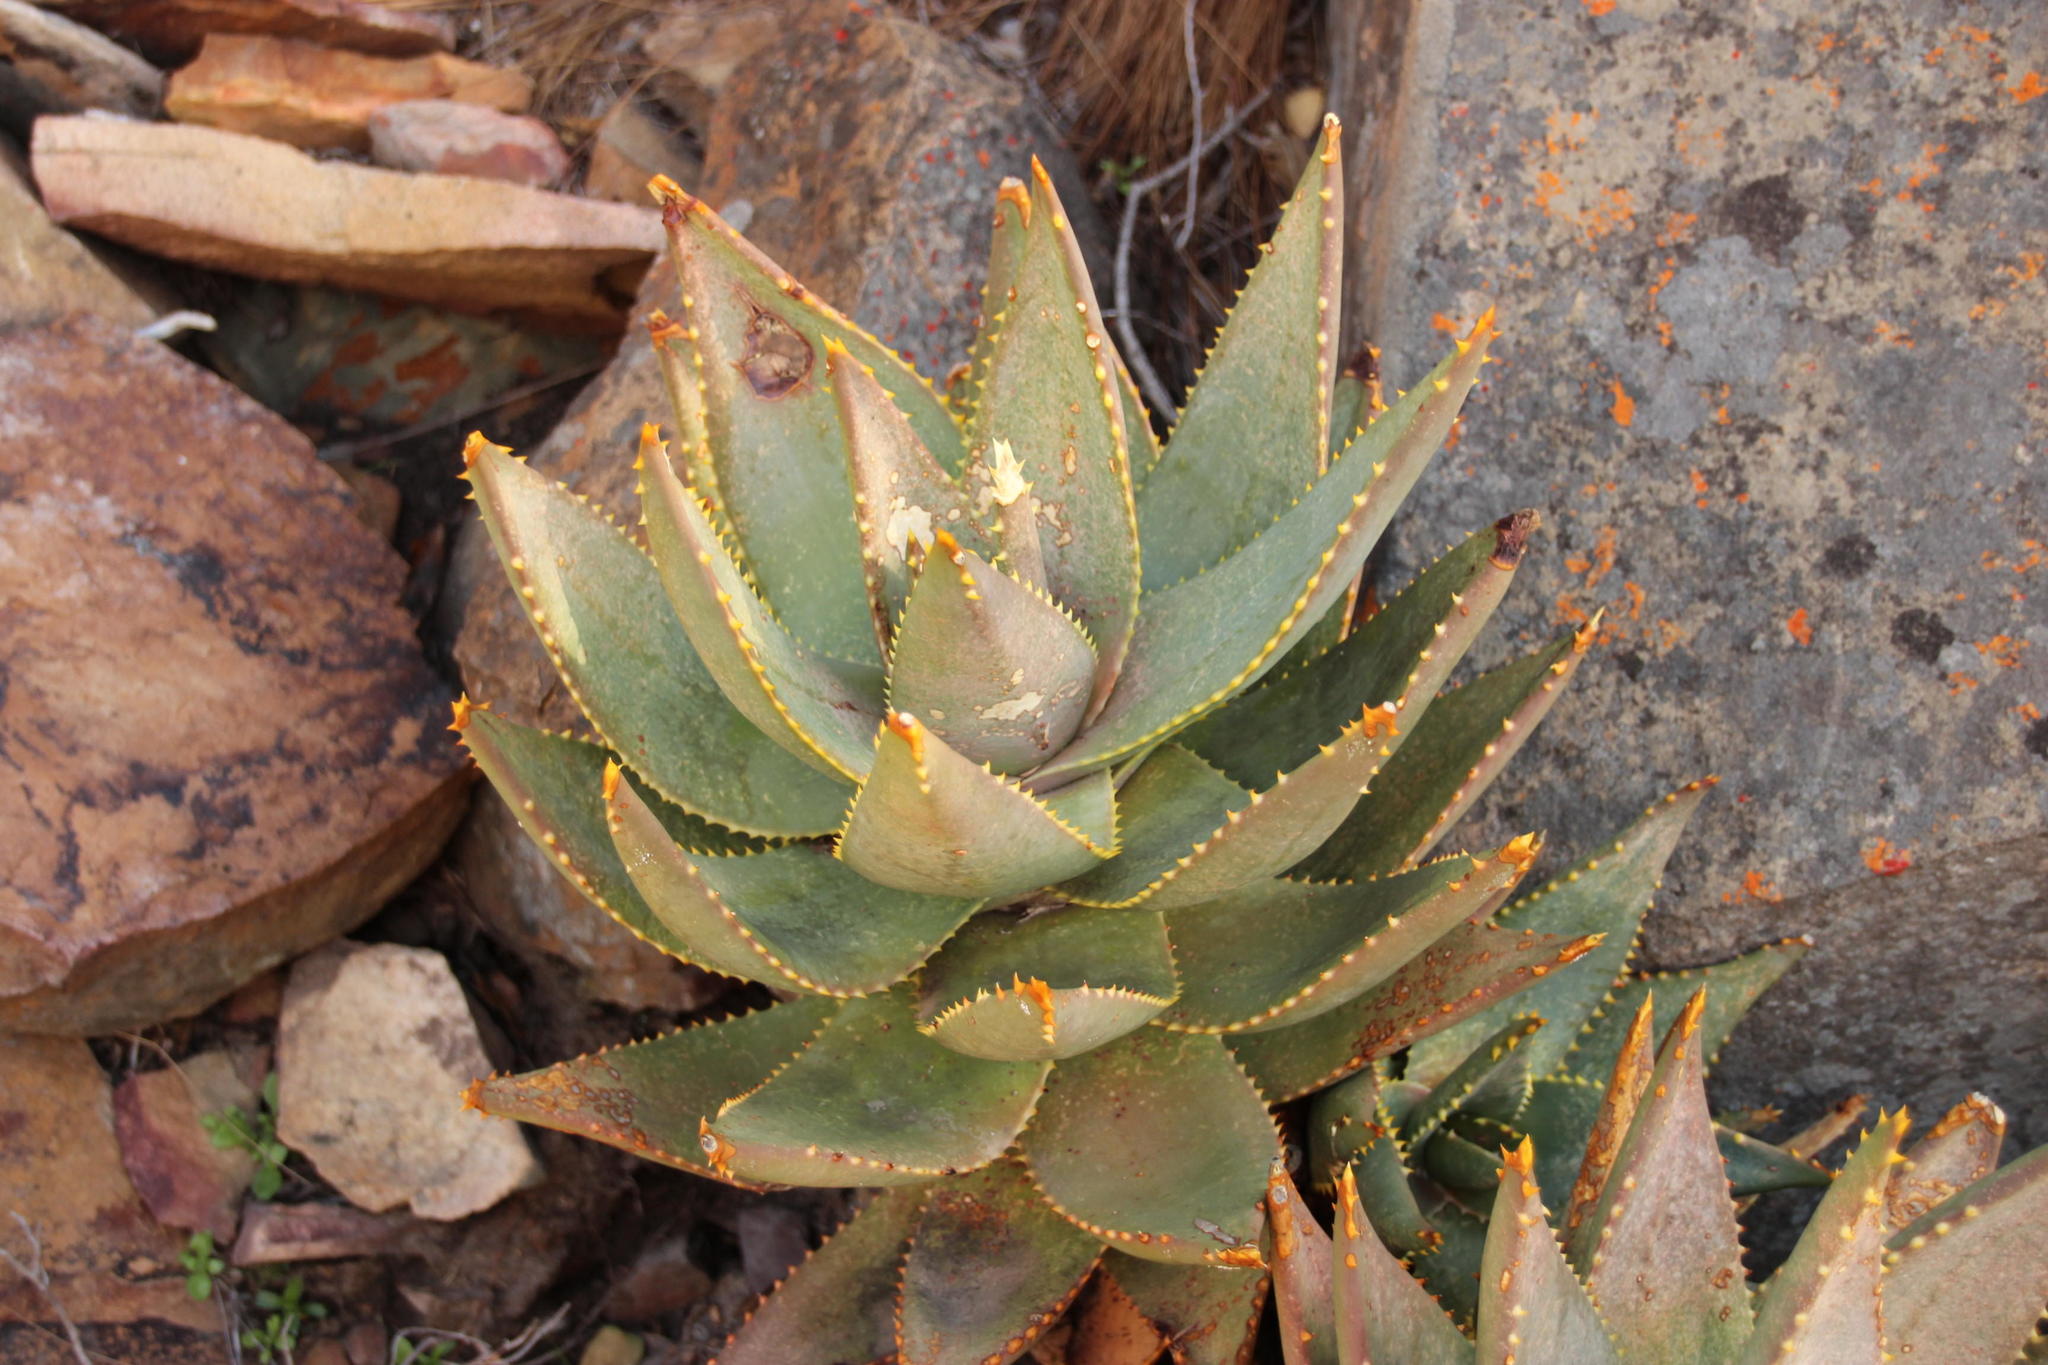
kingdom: Plantae
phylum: Tracheophyta
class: Liliopsida
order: Asparagales
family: Asphodelaceae
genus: Aloe
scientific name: Aloe perfoliata
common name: Mitra aloe
